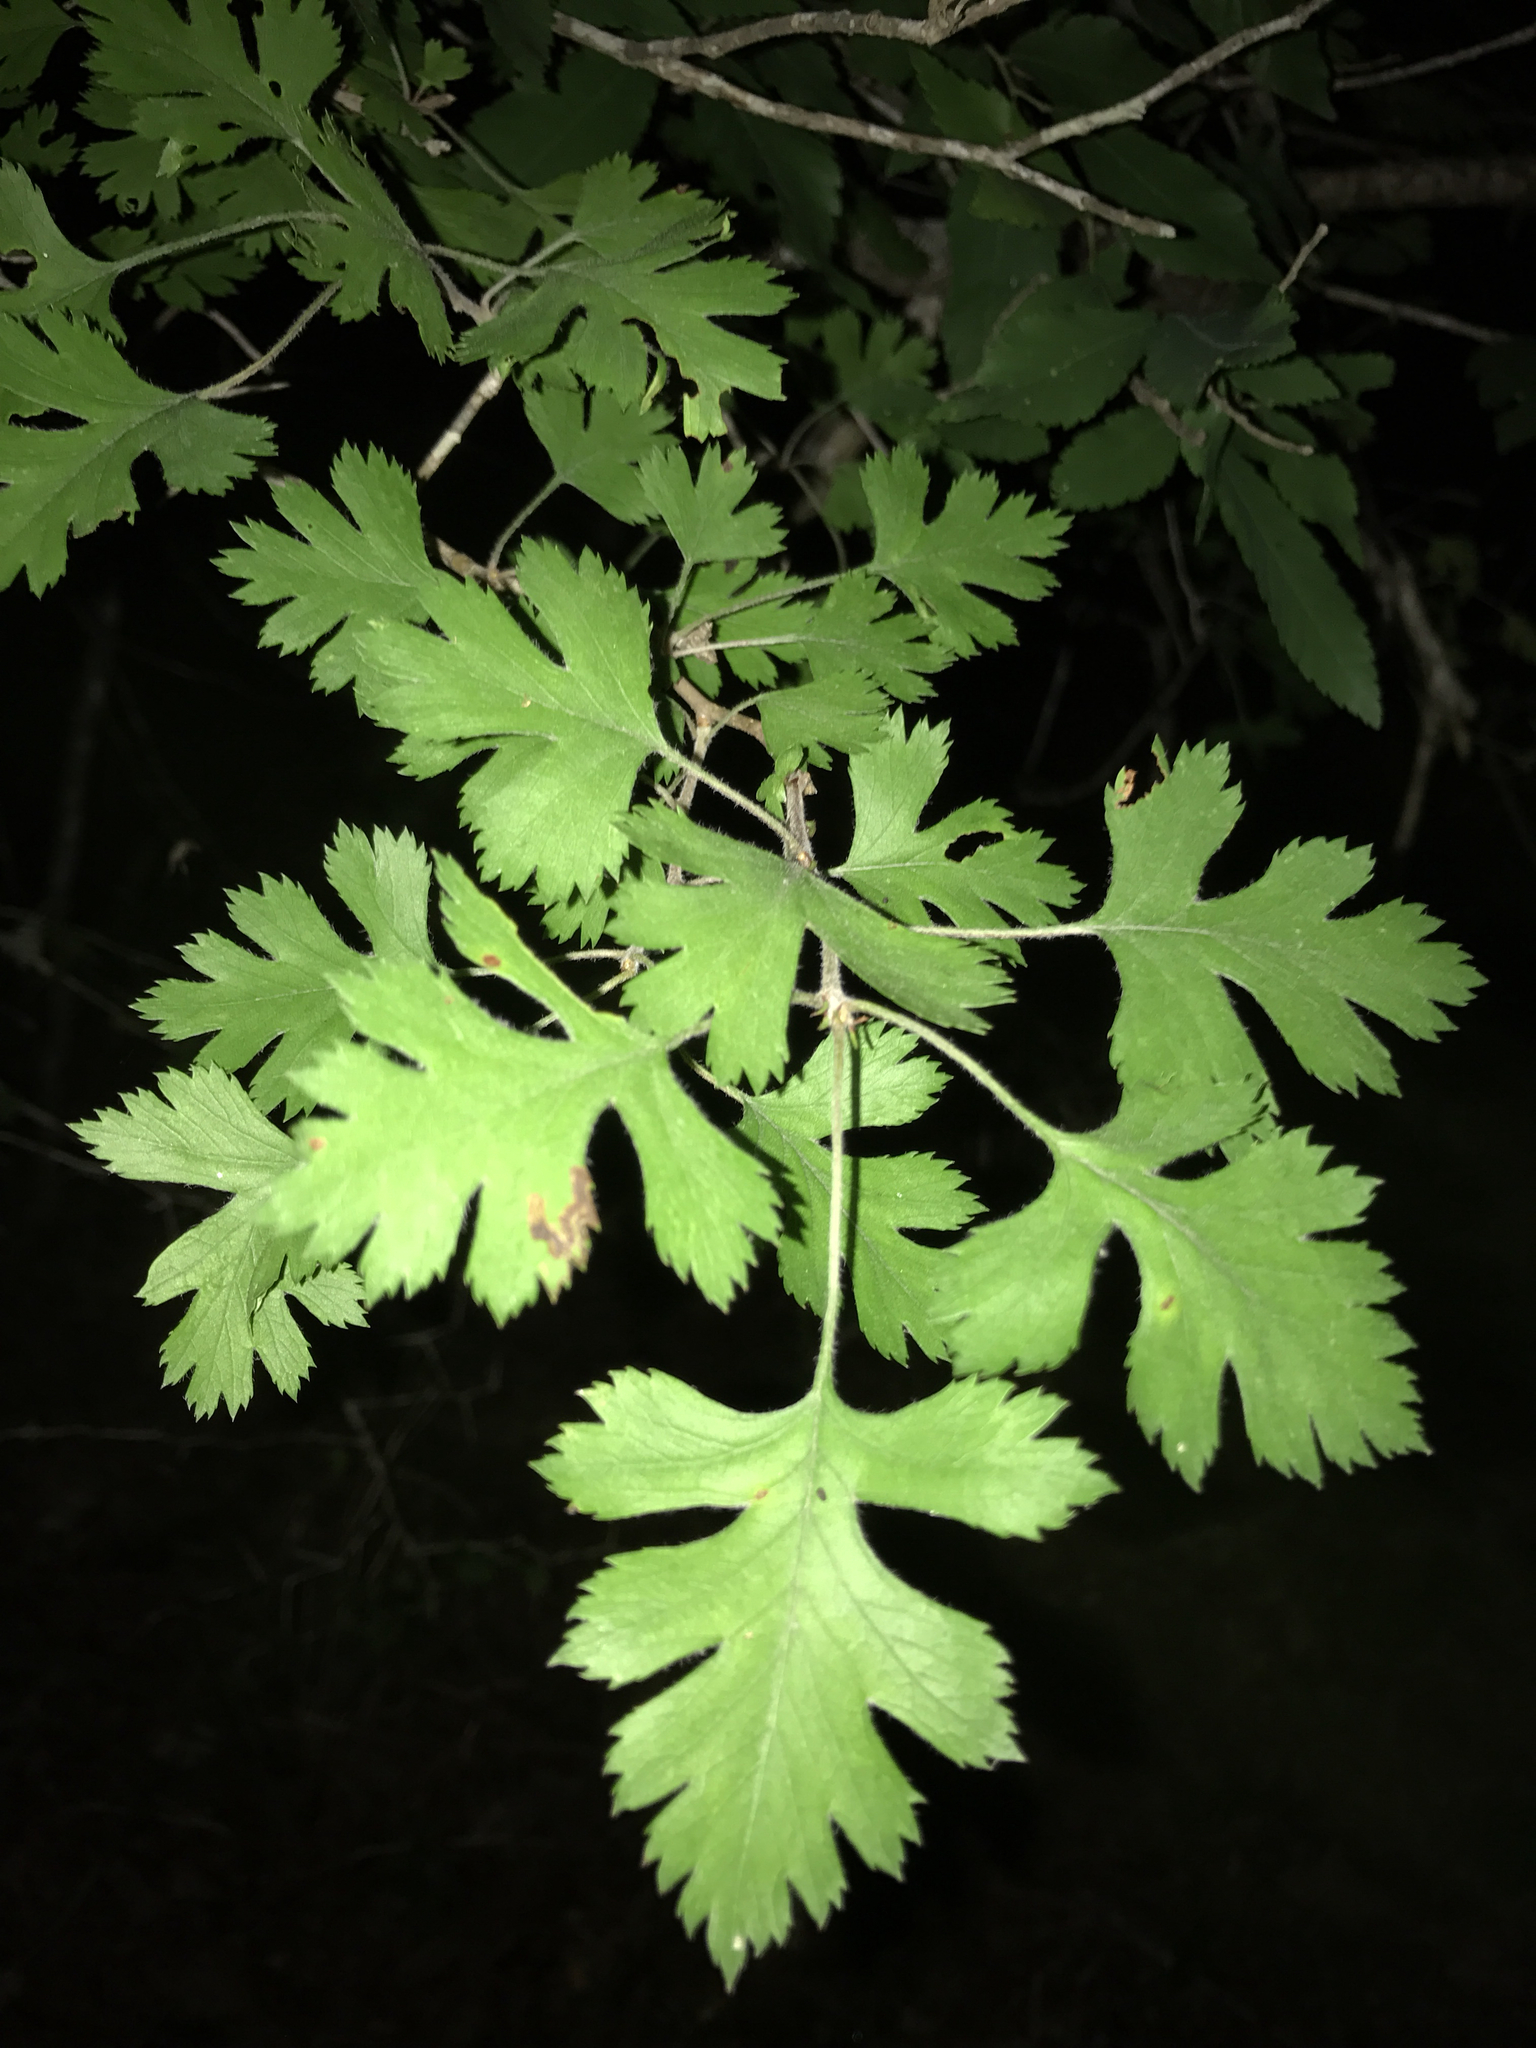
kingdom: Plantae
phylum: Tracheophyta
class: Magnoliopsida
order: Rosales
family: Rosaceae
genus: Crataegus
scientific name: Crataegus marshallii
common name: Parsley-hawthorn
